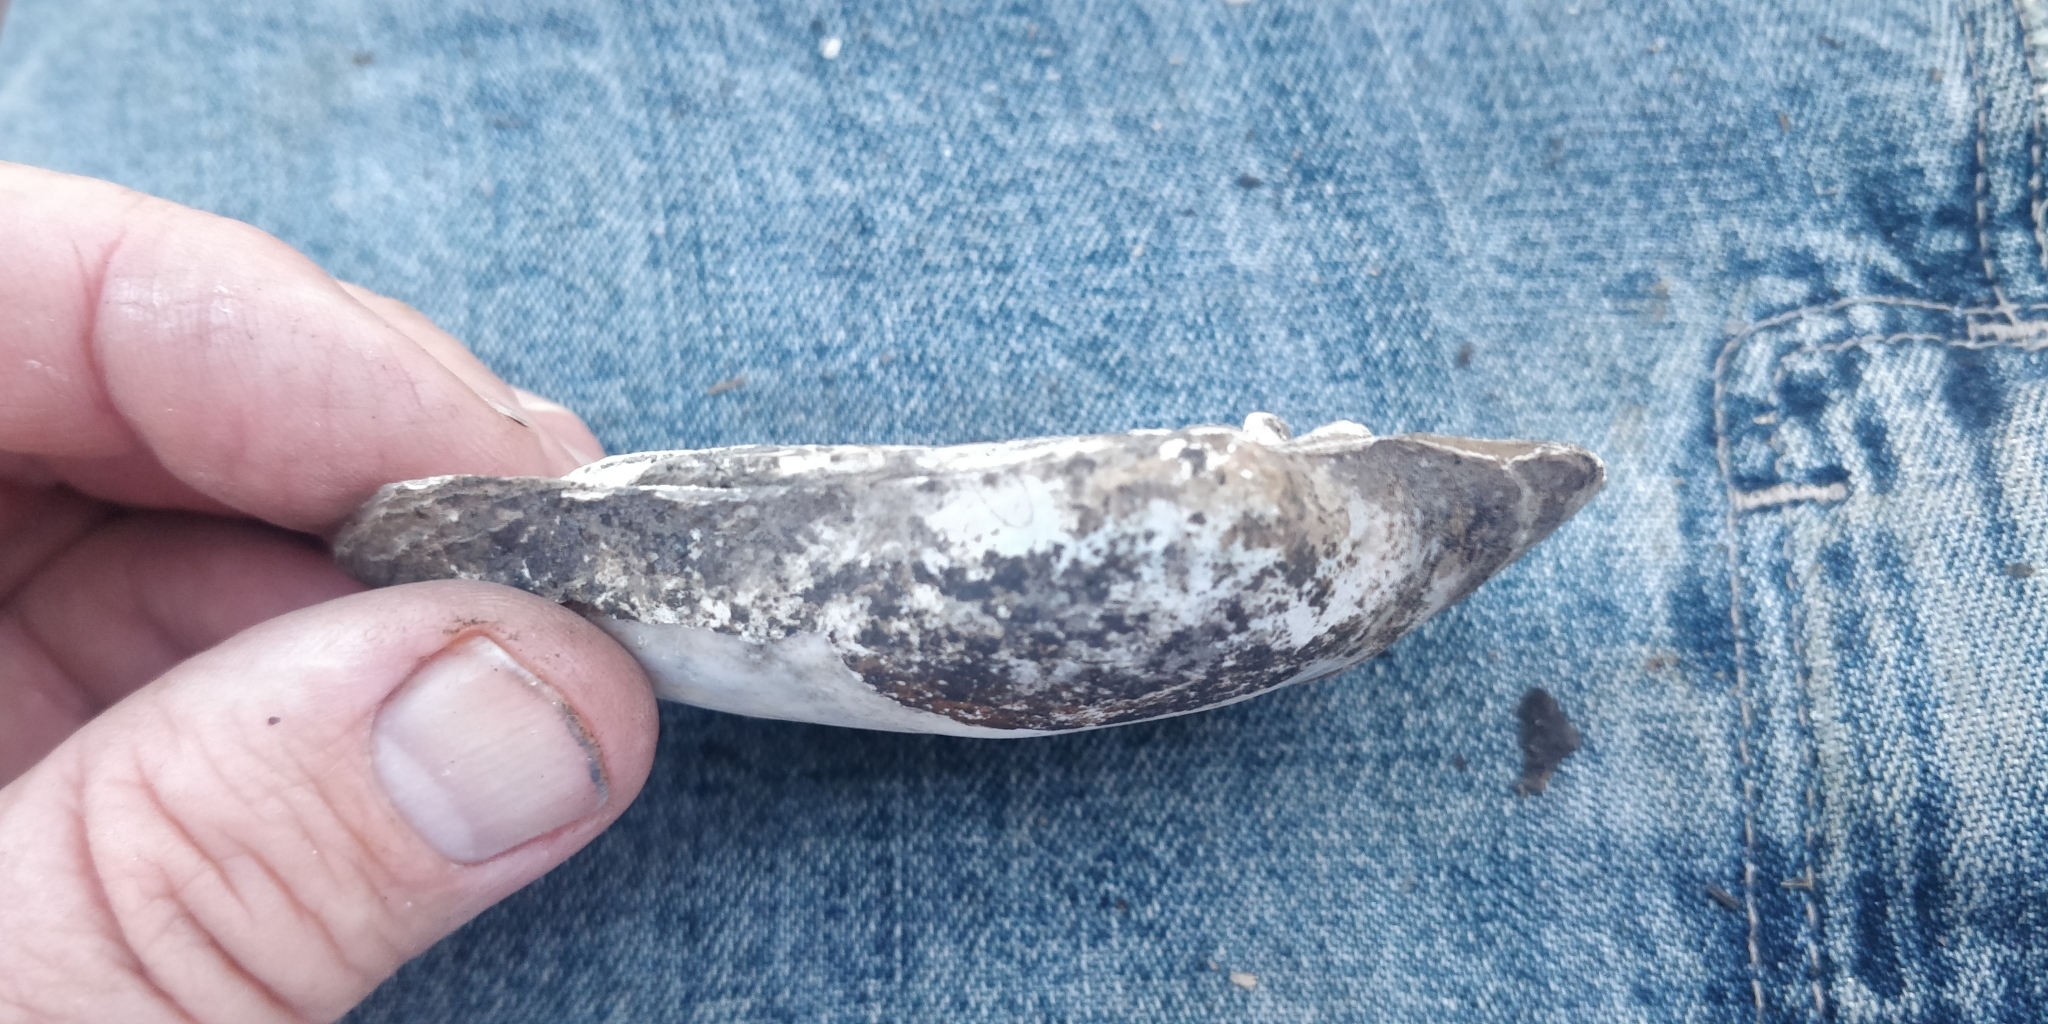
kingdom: Animalia
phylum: Mollusca
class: Bivalvia
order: Unionida
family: Unionidae
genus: Lampsilis
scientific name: Lampsilis cardium
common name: Plain pocketbook
